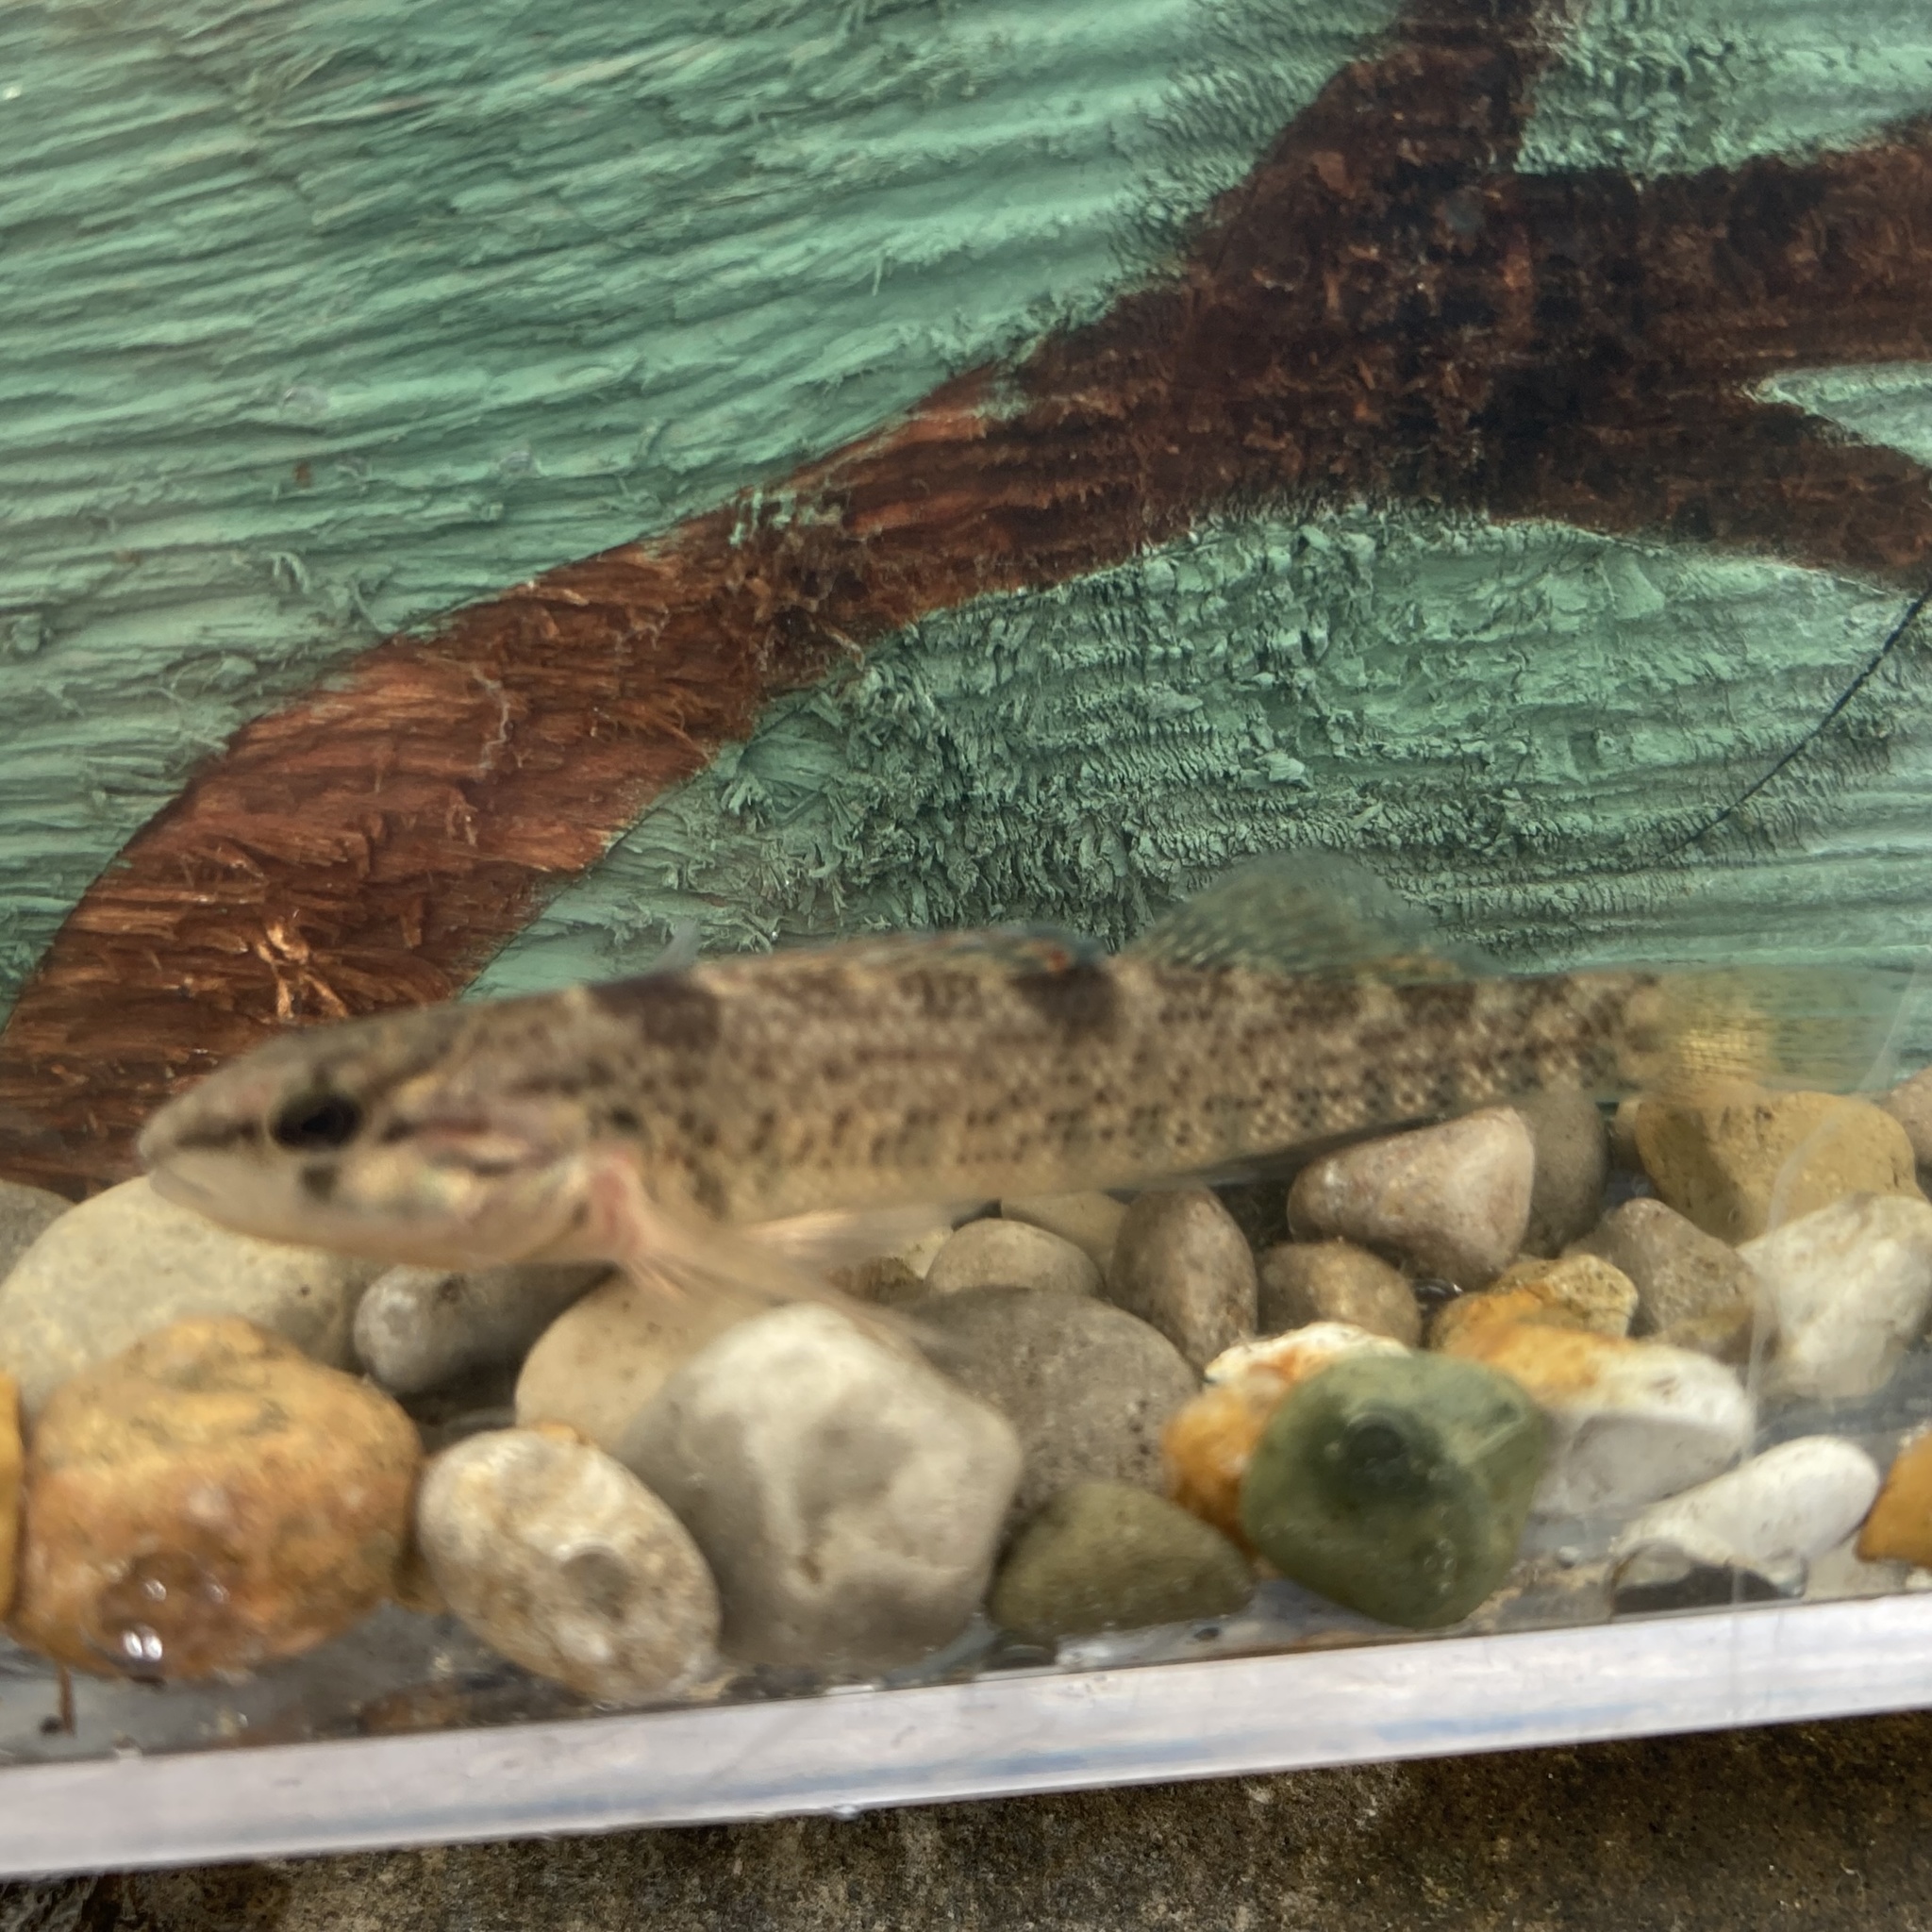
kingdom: Animalia
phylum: Chordata
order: Perciformes
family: Percidae
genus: Etheostoma
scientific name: Etheostoma caeruleum
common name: Rainbow darter
